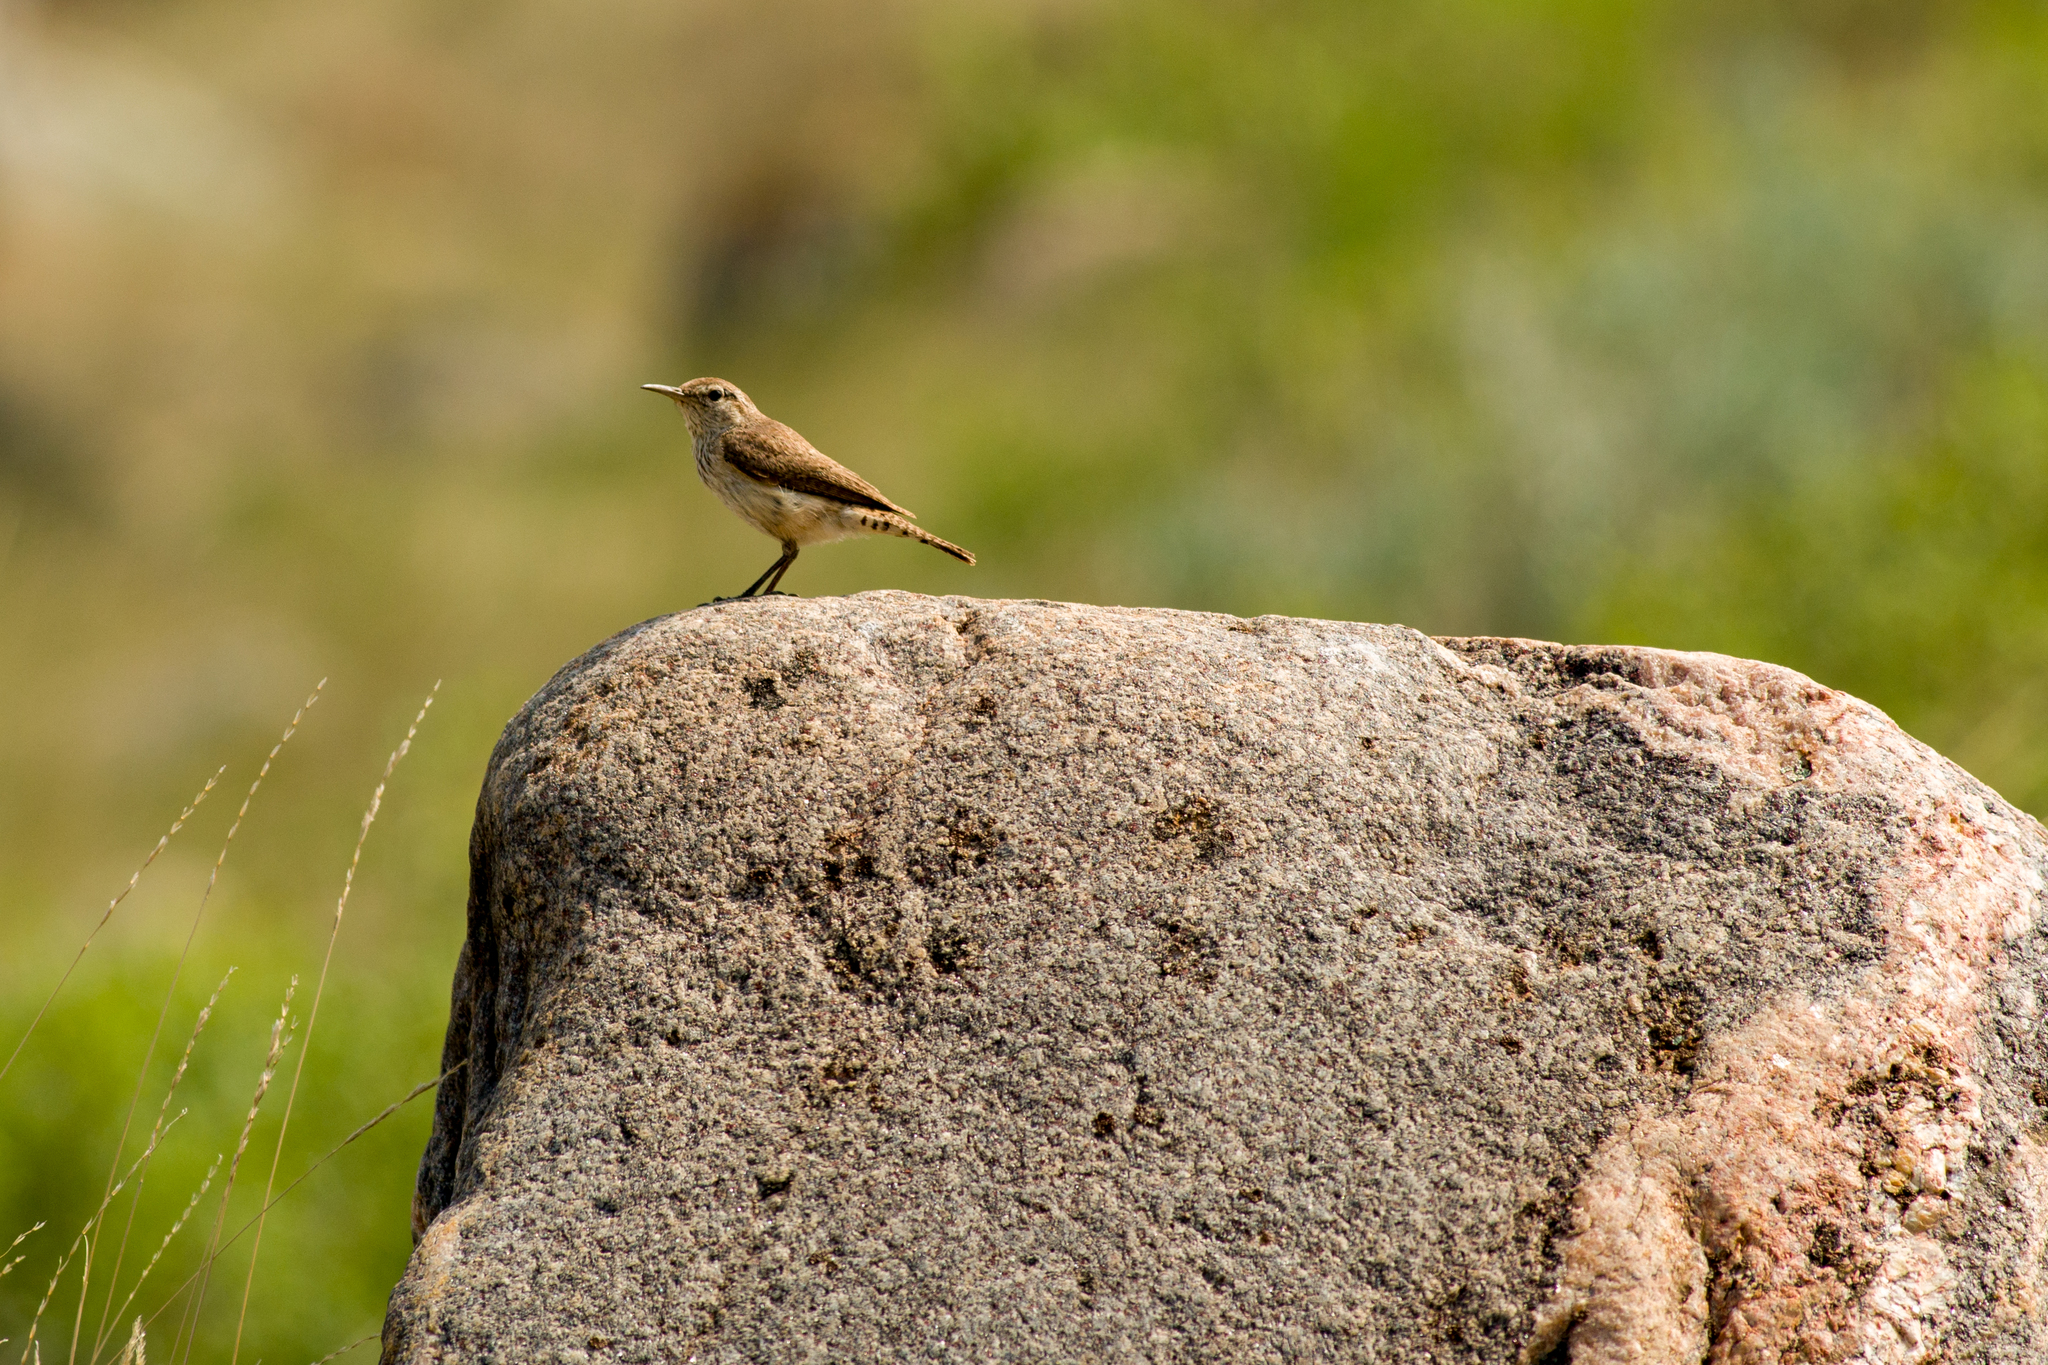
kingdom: Animalia
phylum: Chordata
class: Aves
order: Passeriformes
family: Troglodytidae
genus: Salpinctes
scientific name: Salpinctes obsoletus
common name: Rock wren
